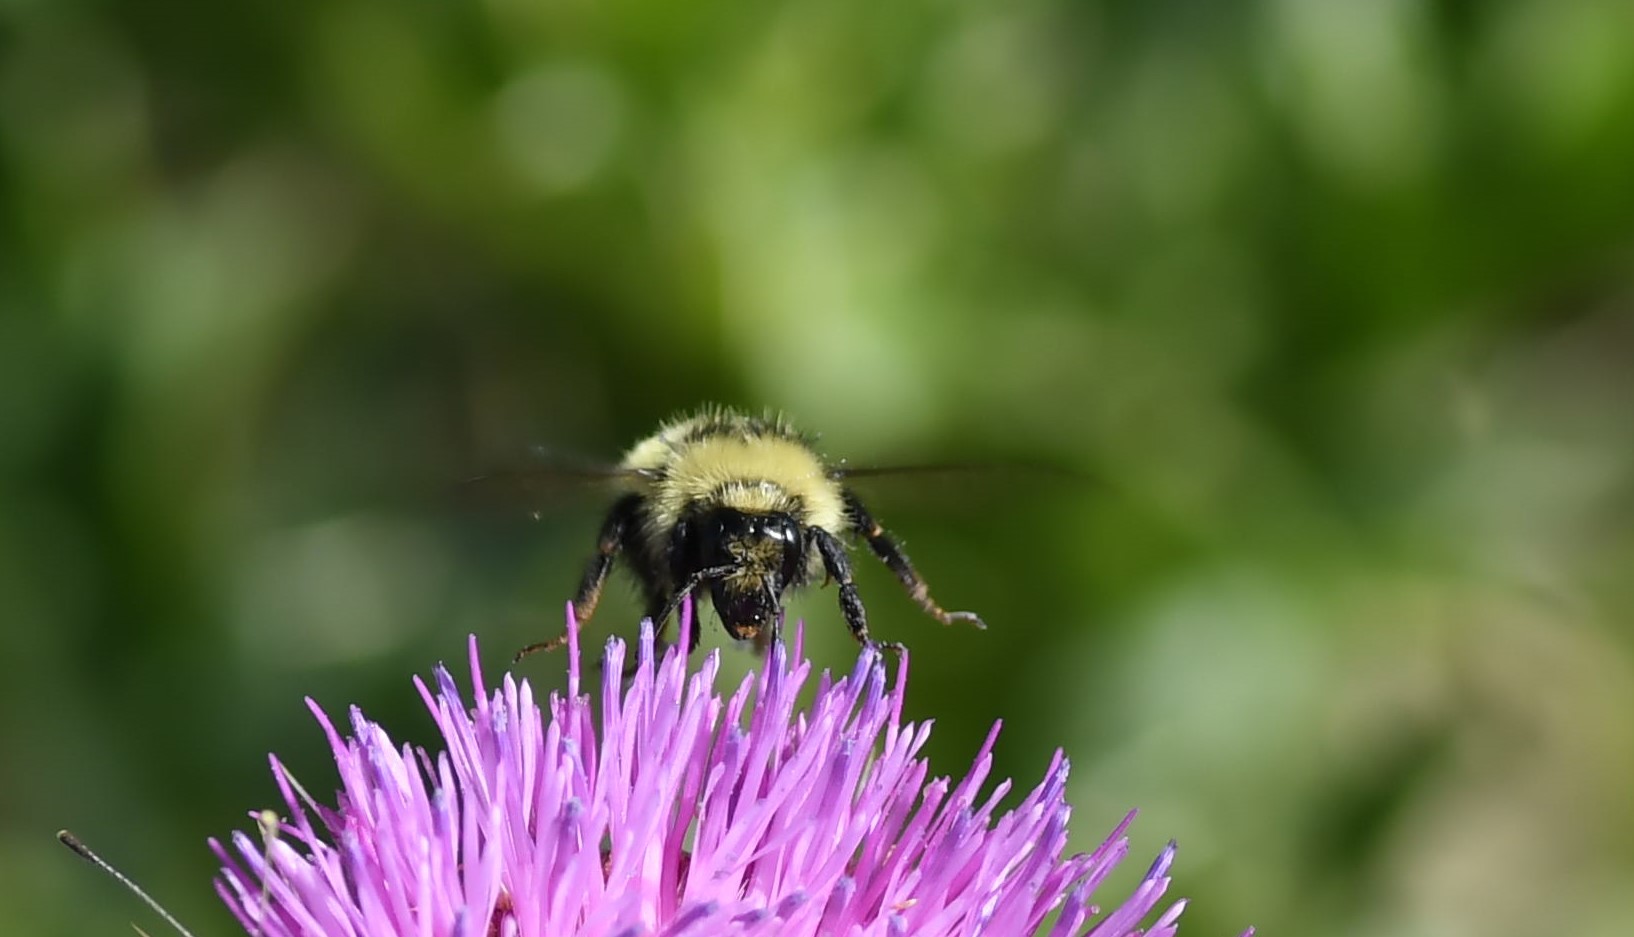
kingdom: Animalia
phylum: Arthropoda
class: Insecta
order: Hymenoptera
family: Apidae
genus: Bombus
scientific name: Bombus centralis
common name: Central bumble bee
